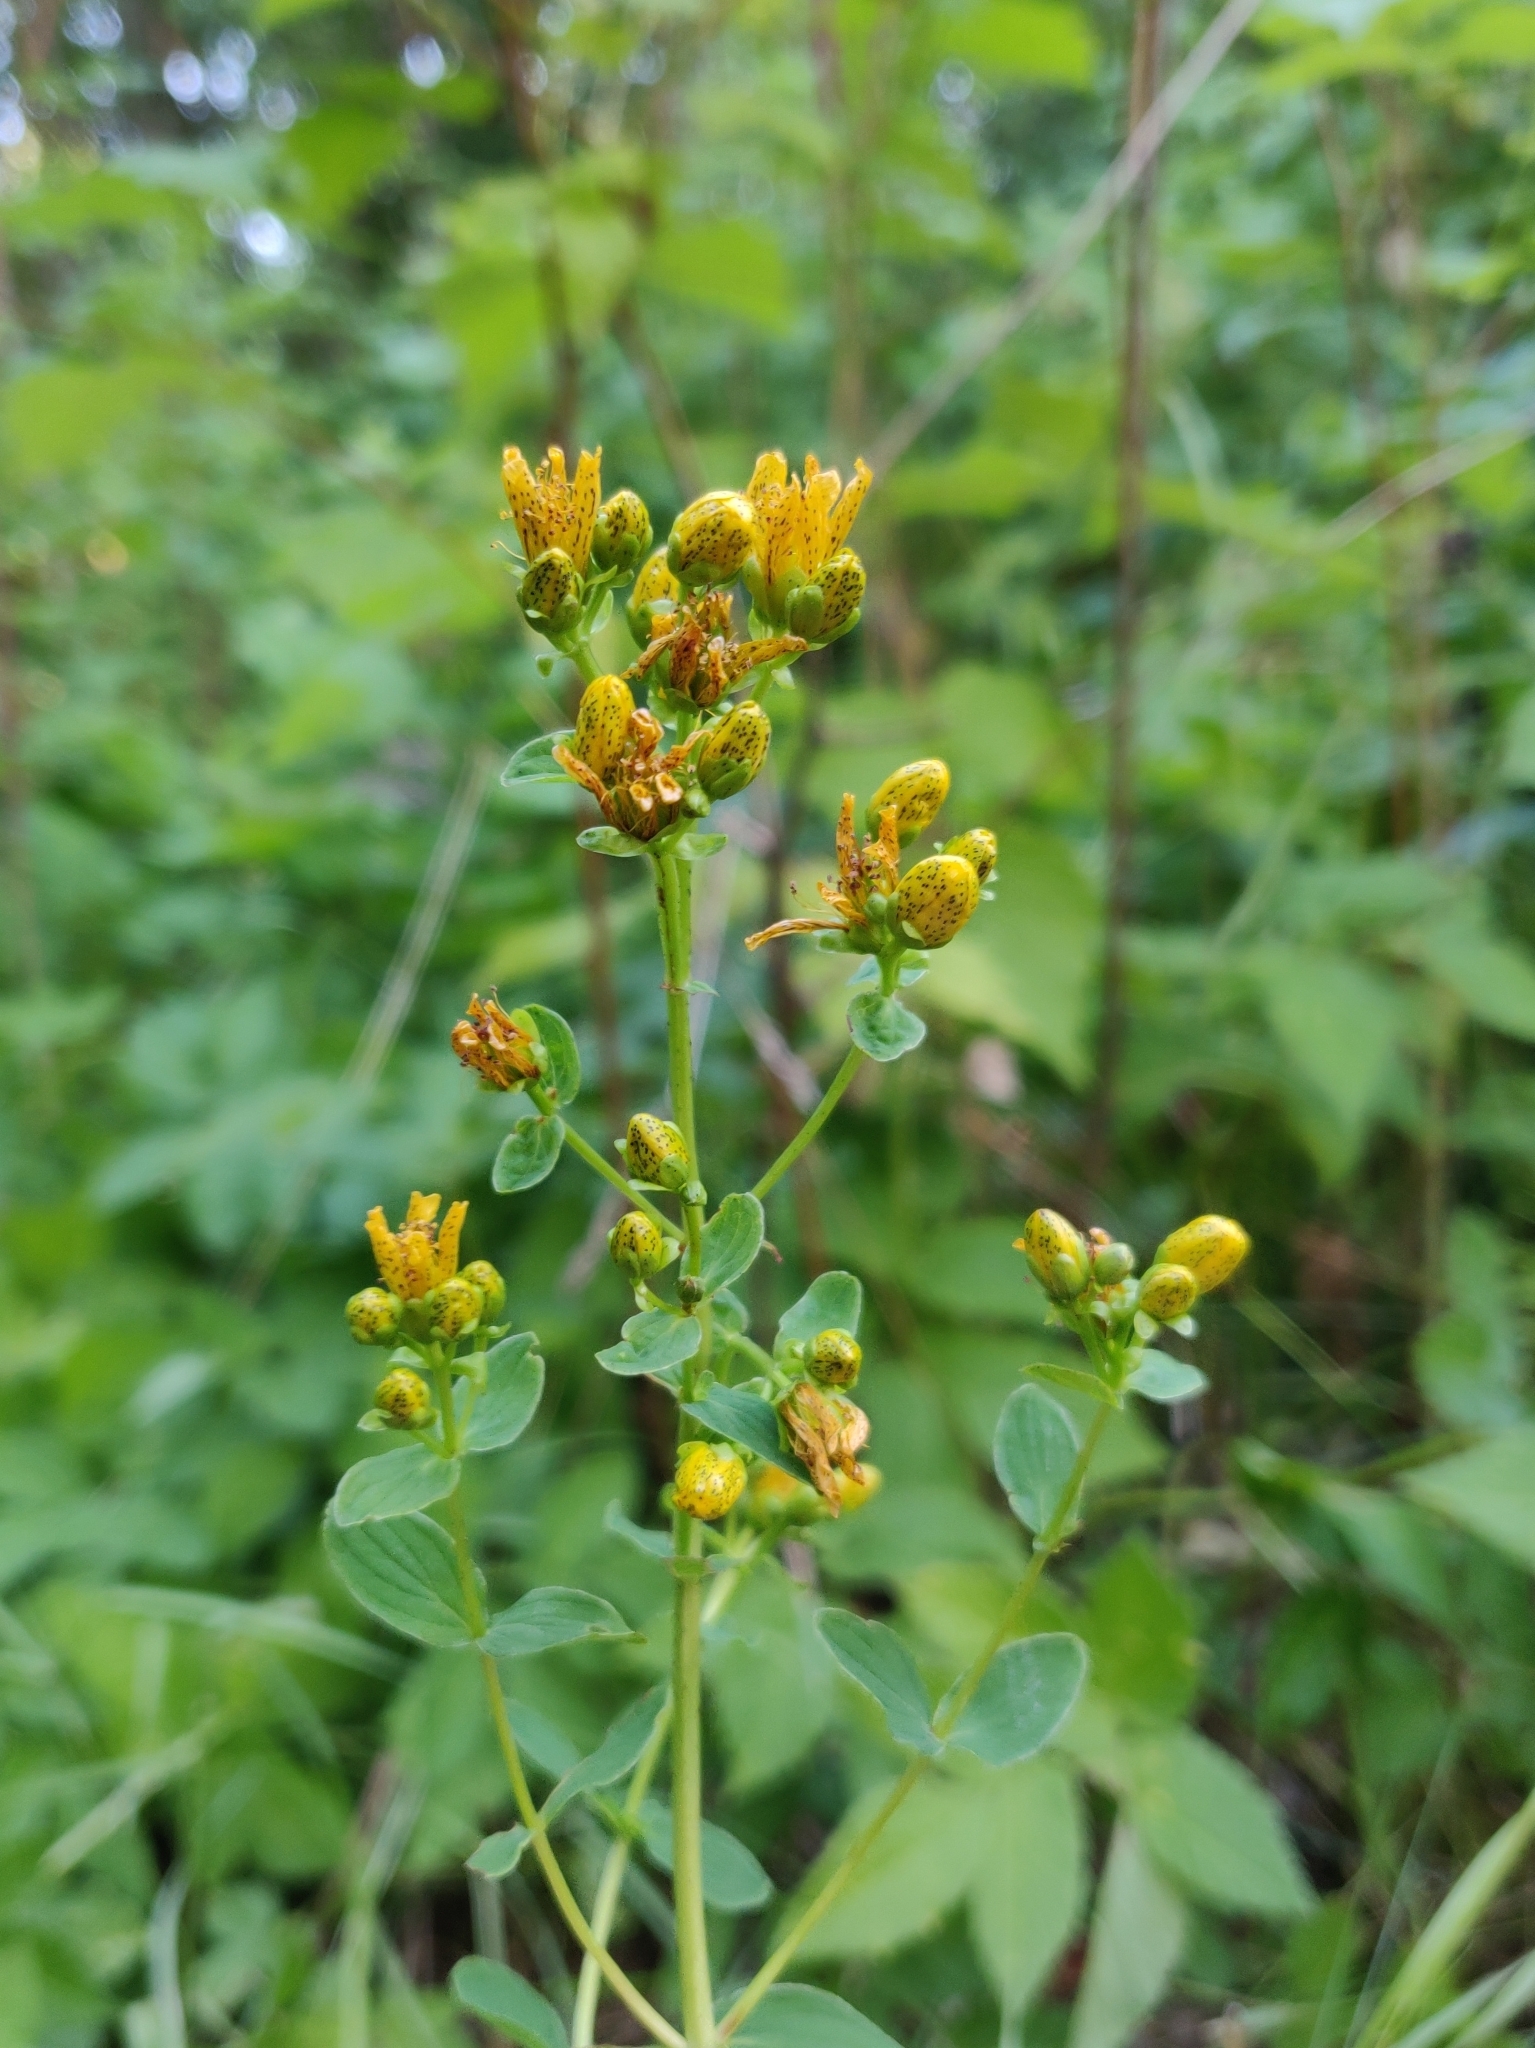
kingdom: Plantae
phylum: Tracheophyta
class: Magnoliopsida
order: Malpighiales
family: Hypericaceae
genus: Hypericum
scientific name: Hypericum maculatum
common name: Imperforate st. john's-wort
